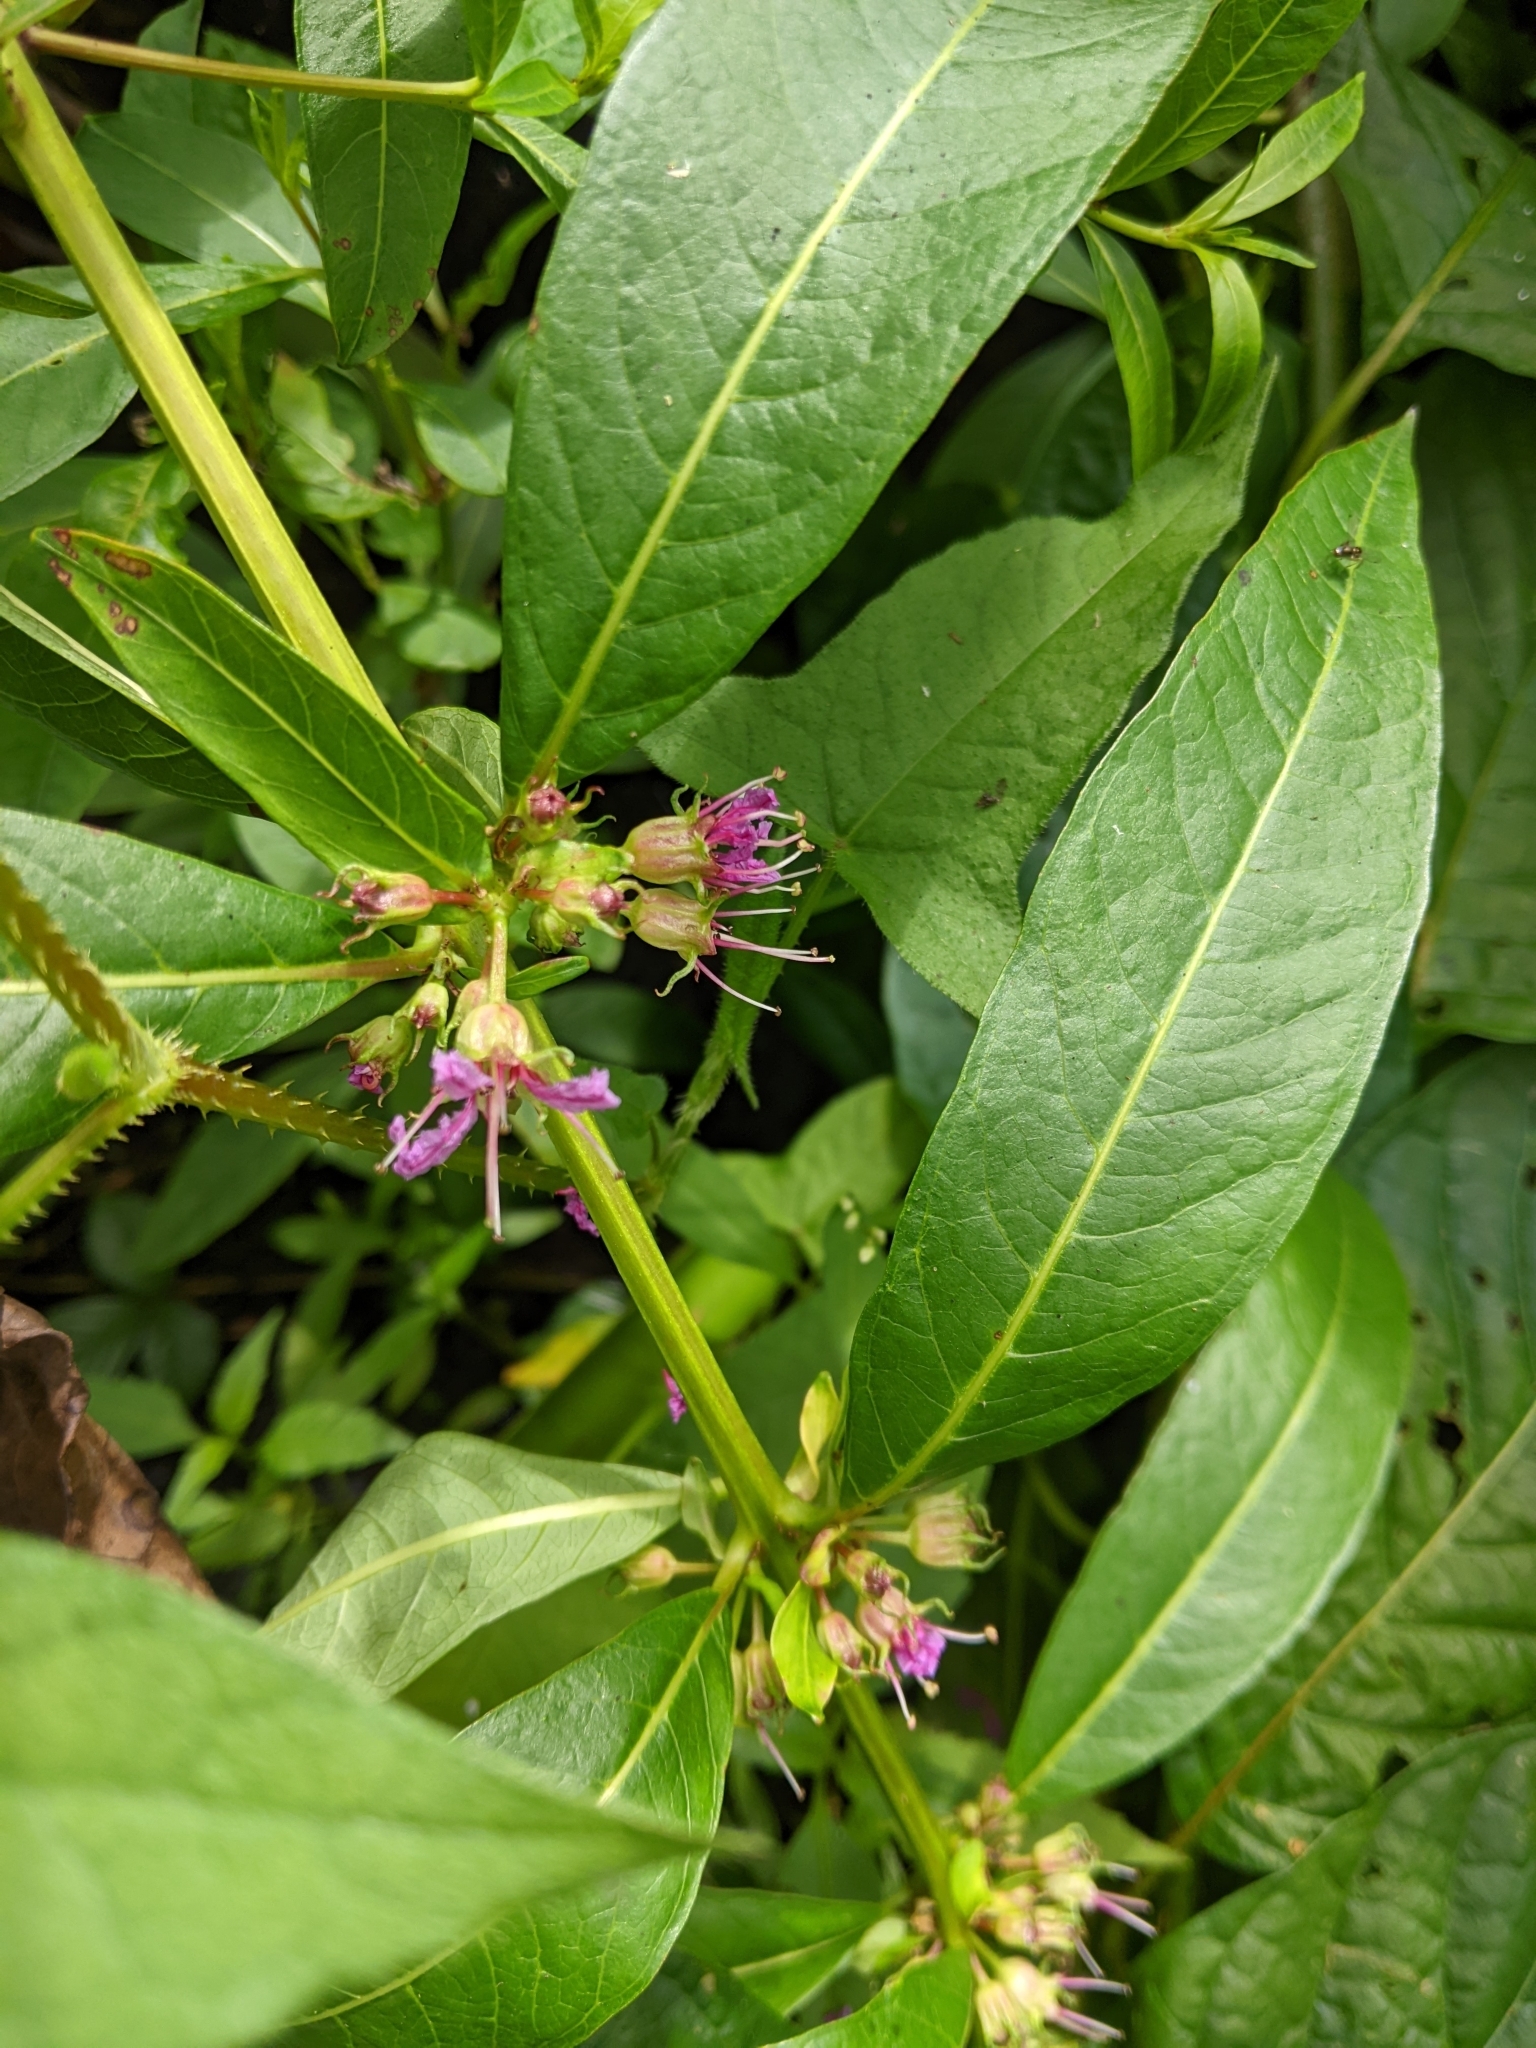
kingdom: Plantae
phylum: Tracheophyta
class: Magnoliopsida
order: Myrtales
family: Lythraceae
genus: Decodon
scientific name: Decodon verticillatus
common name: Hairy swamp loosestrife
